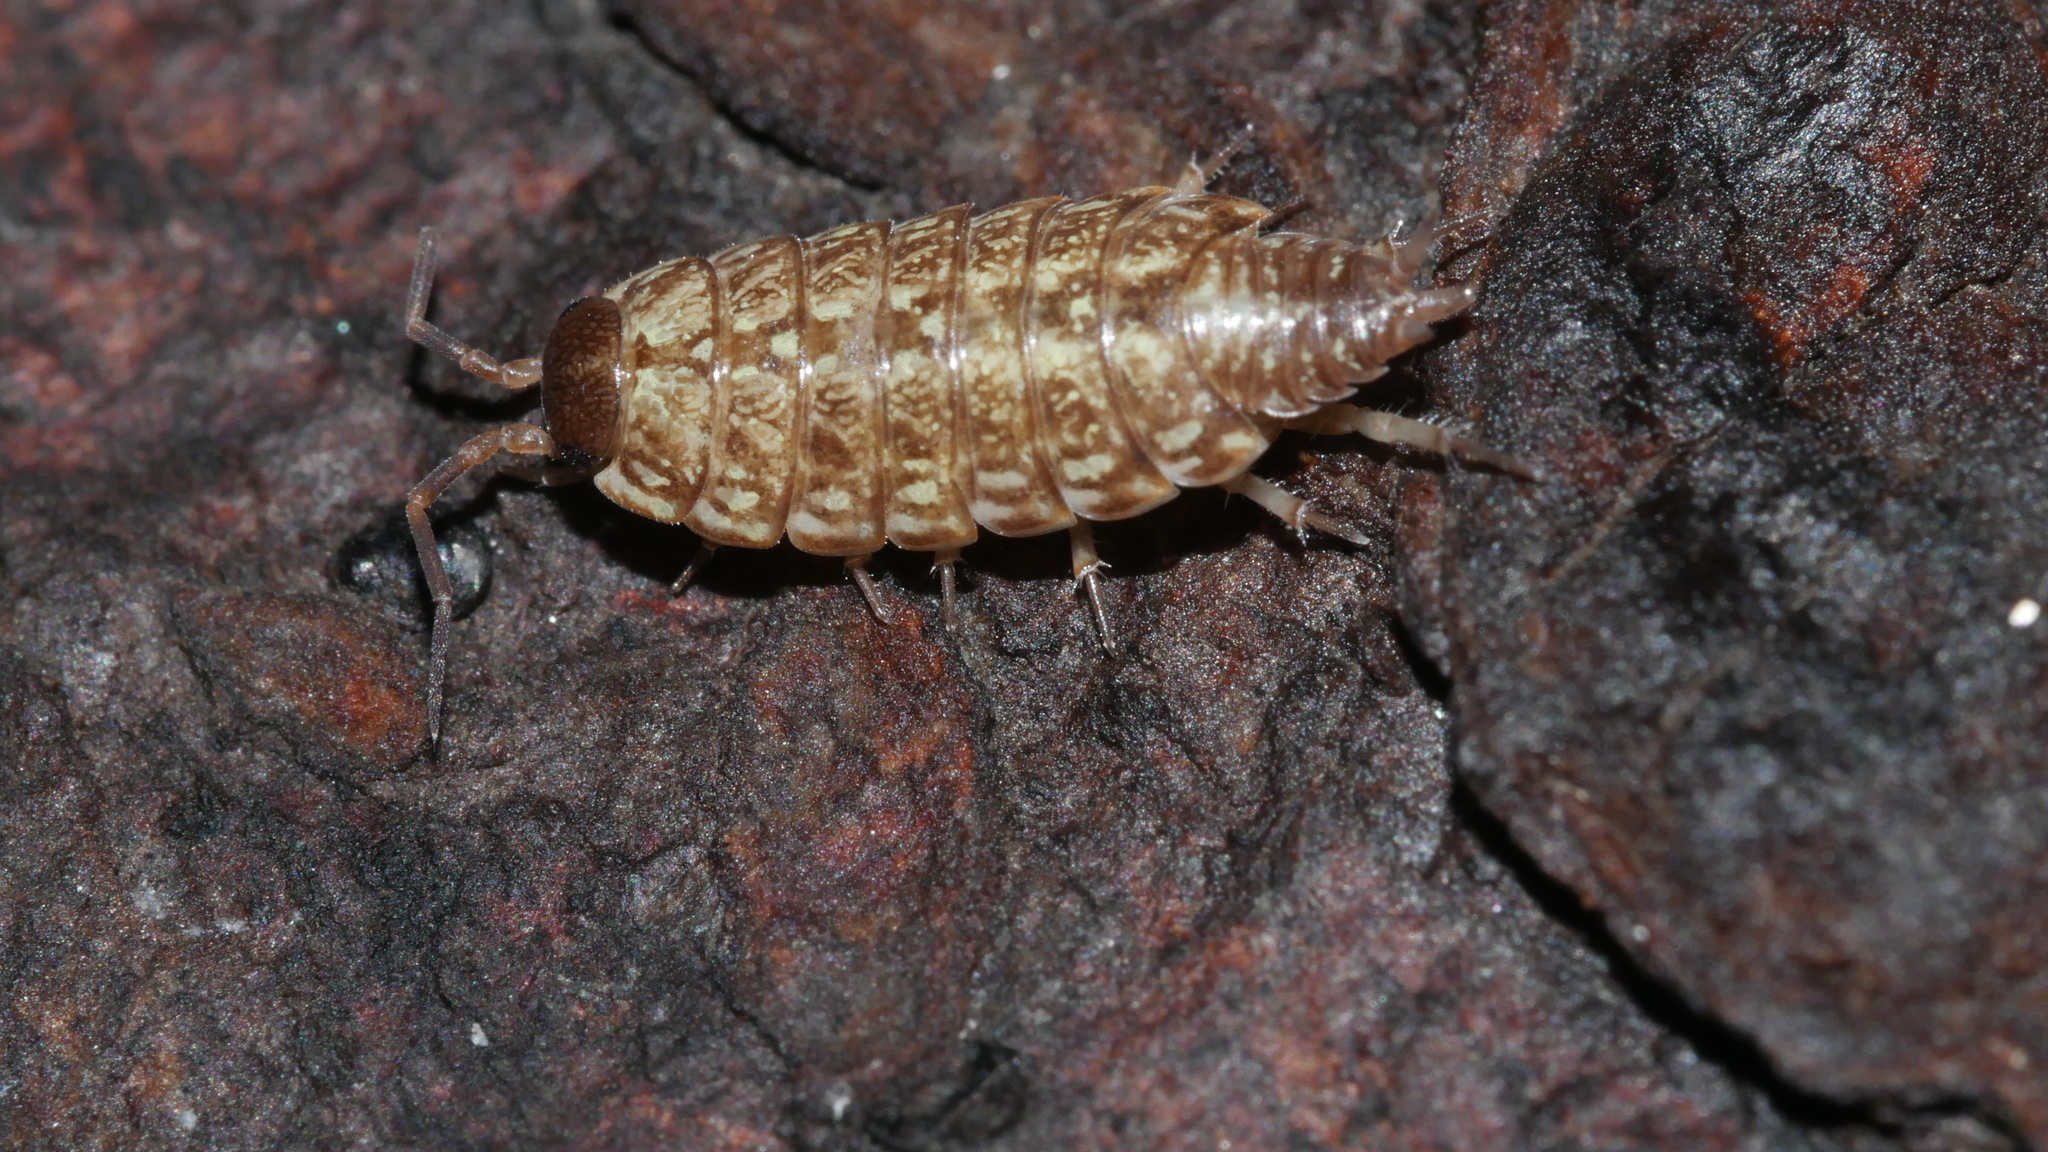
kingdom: Animalia
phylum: Arthropoda
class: Malacostraca
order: Isopoda
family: Philosciidae
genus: Philoscia
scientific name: Philoscia muscorum
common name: Common striped woodlouse
